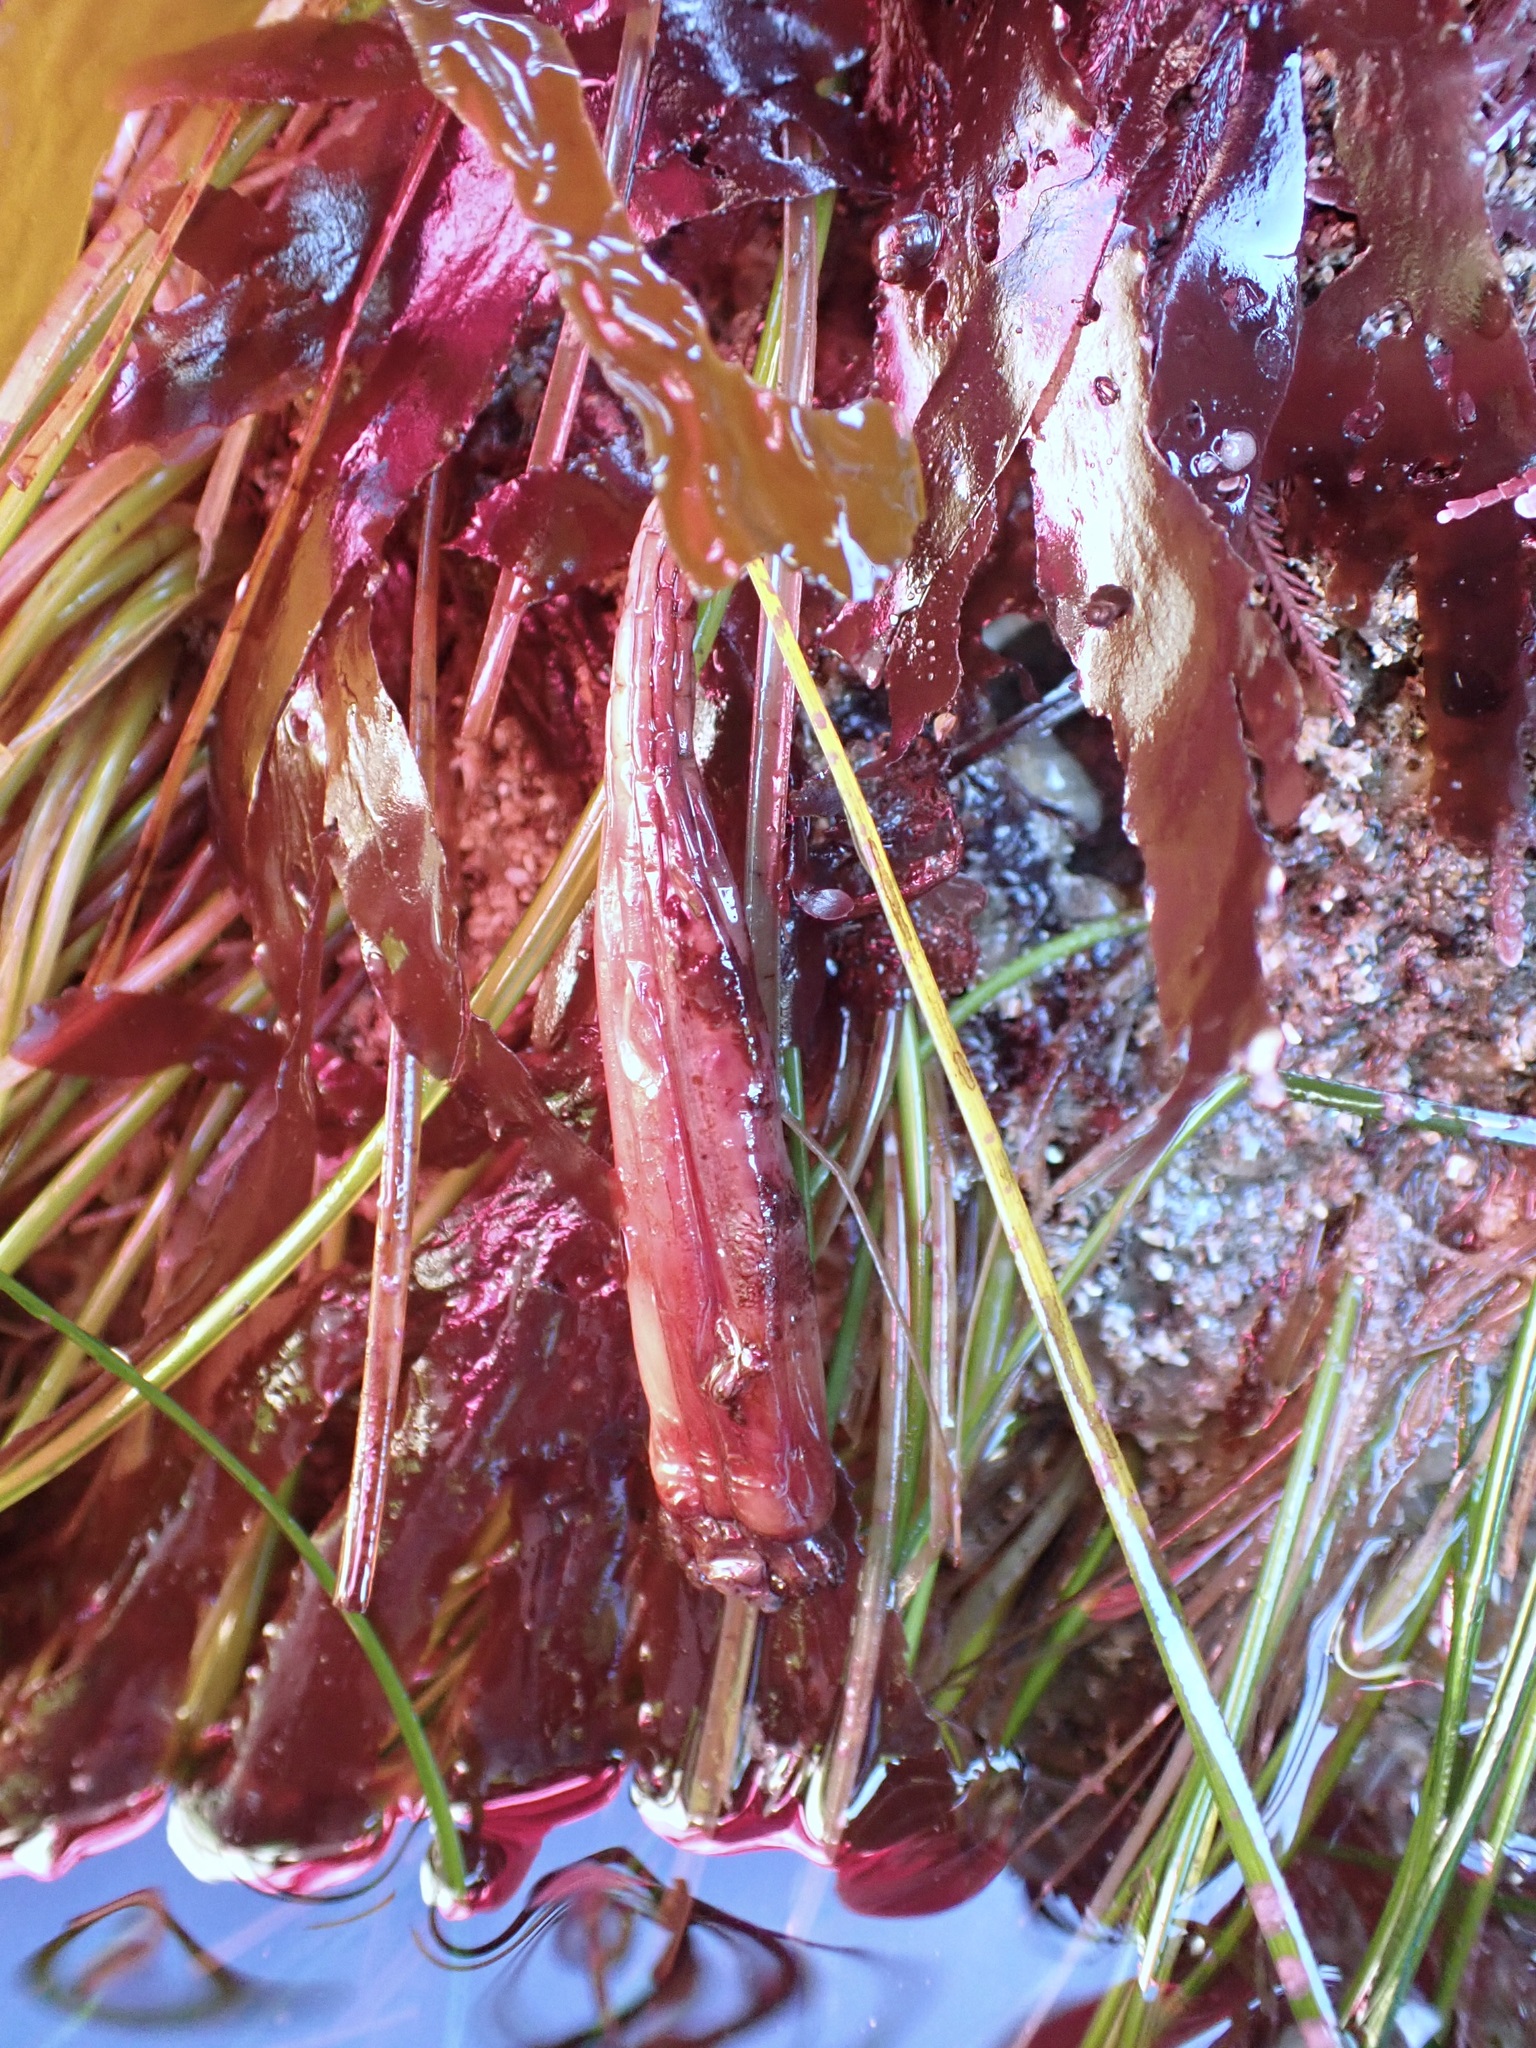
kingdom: Animalia
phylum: Chordata
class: Ascidiacea
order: Stolidobranchia
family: Styelidae
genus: Styela
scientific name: Styela montereyensis
